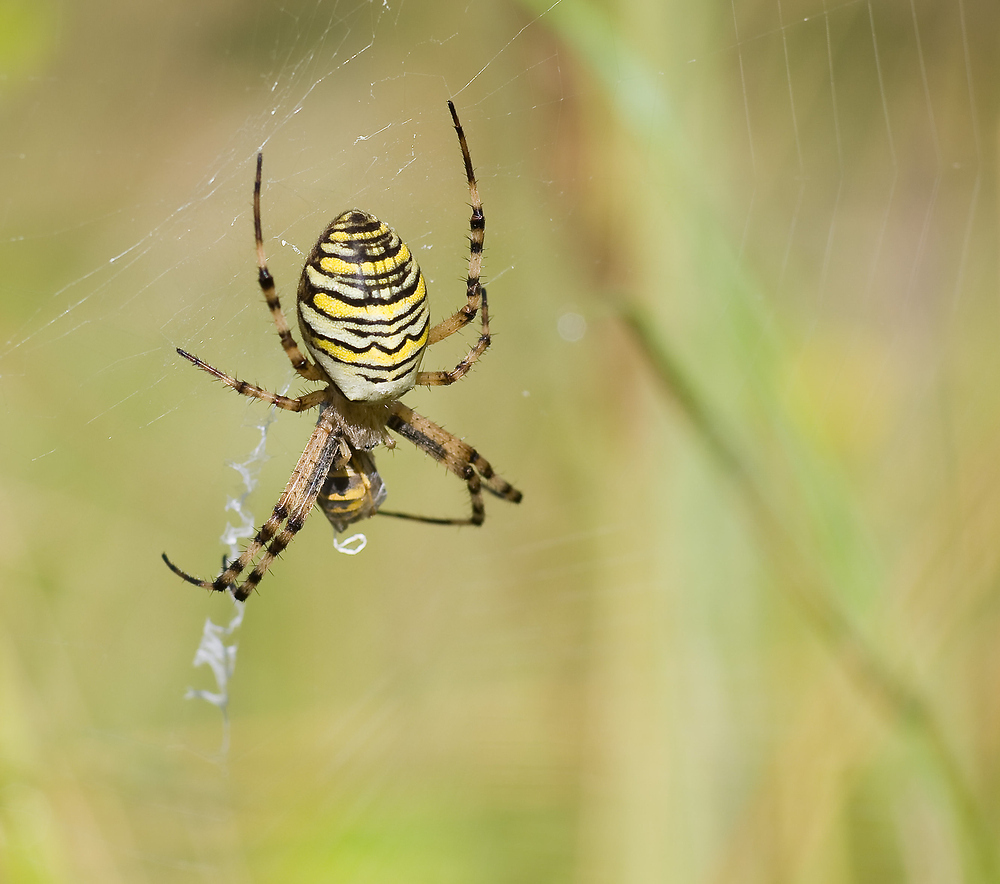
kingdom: Animalia
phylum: Arthropoda
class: Arachnida
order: Araneae
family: Araneidae
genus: Argiope
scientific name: Argiope bruennichi
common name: Wasp spider
